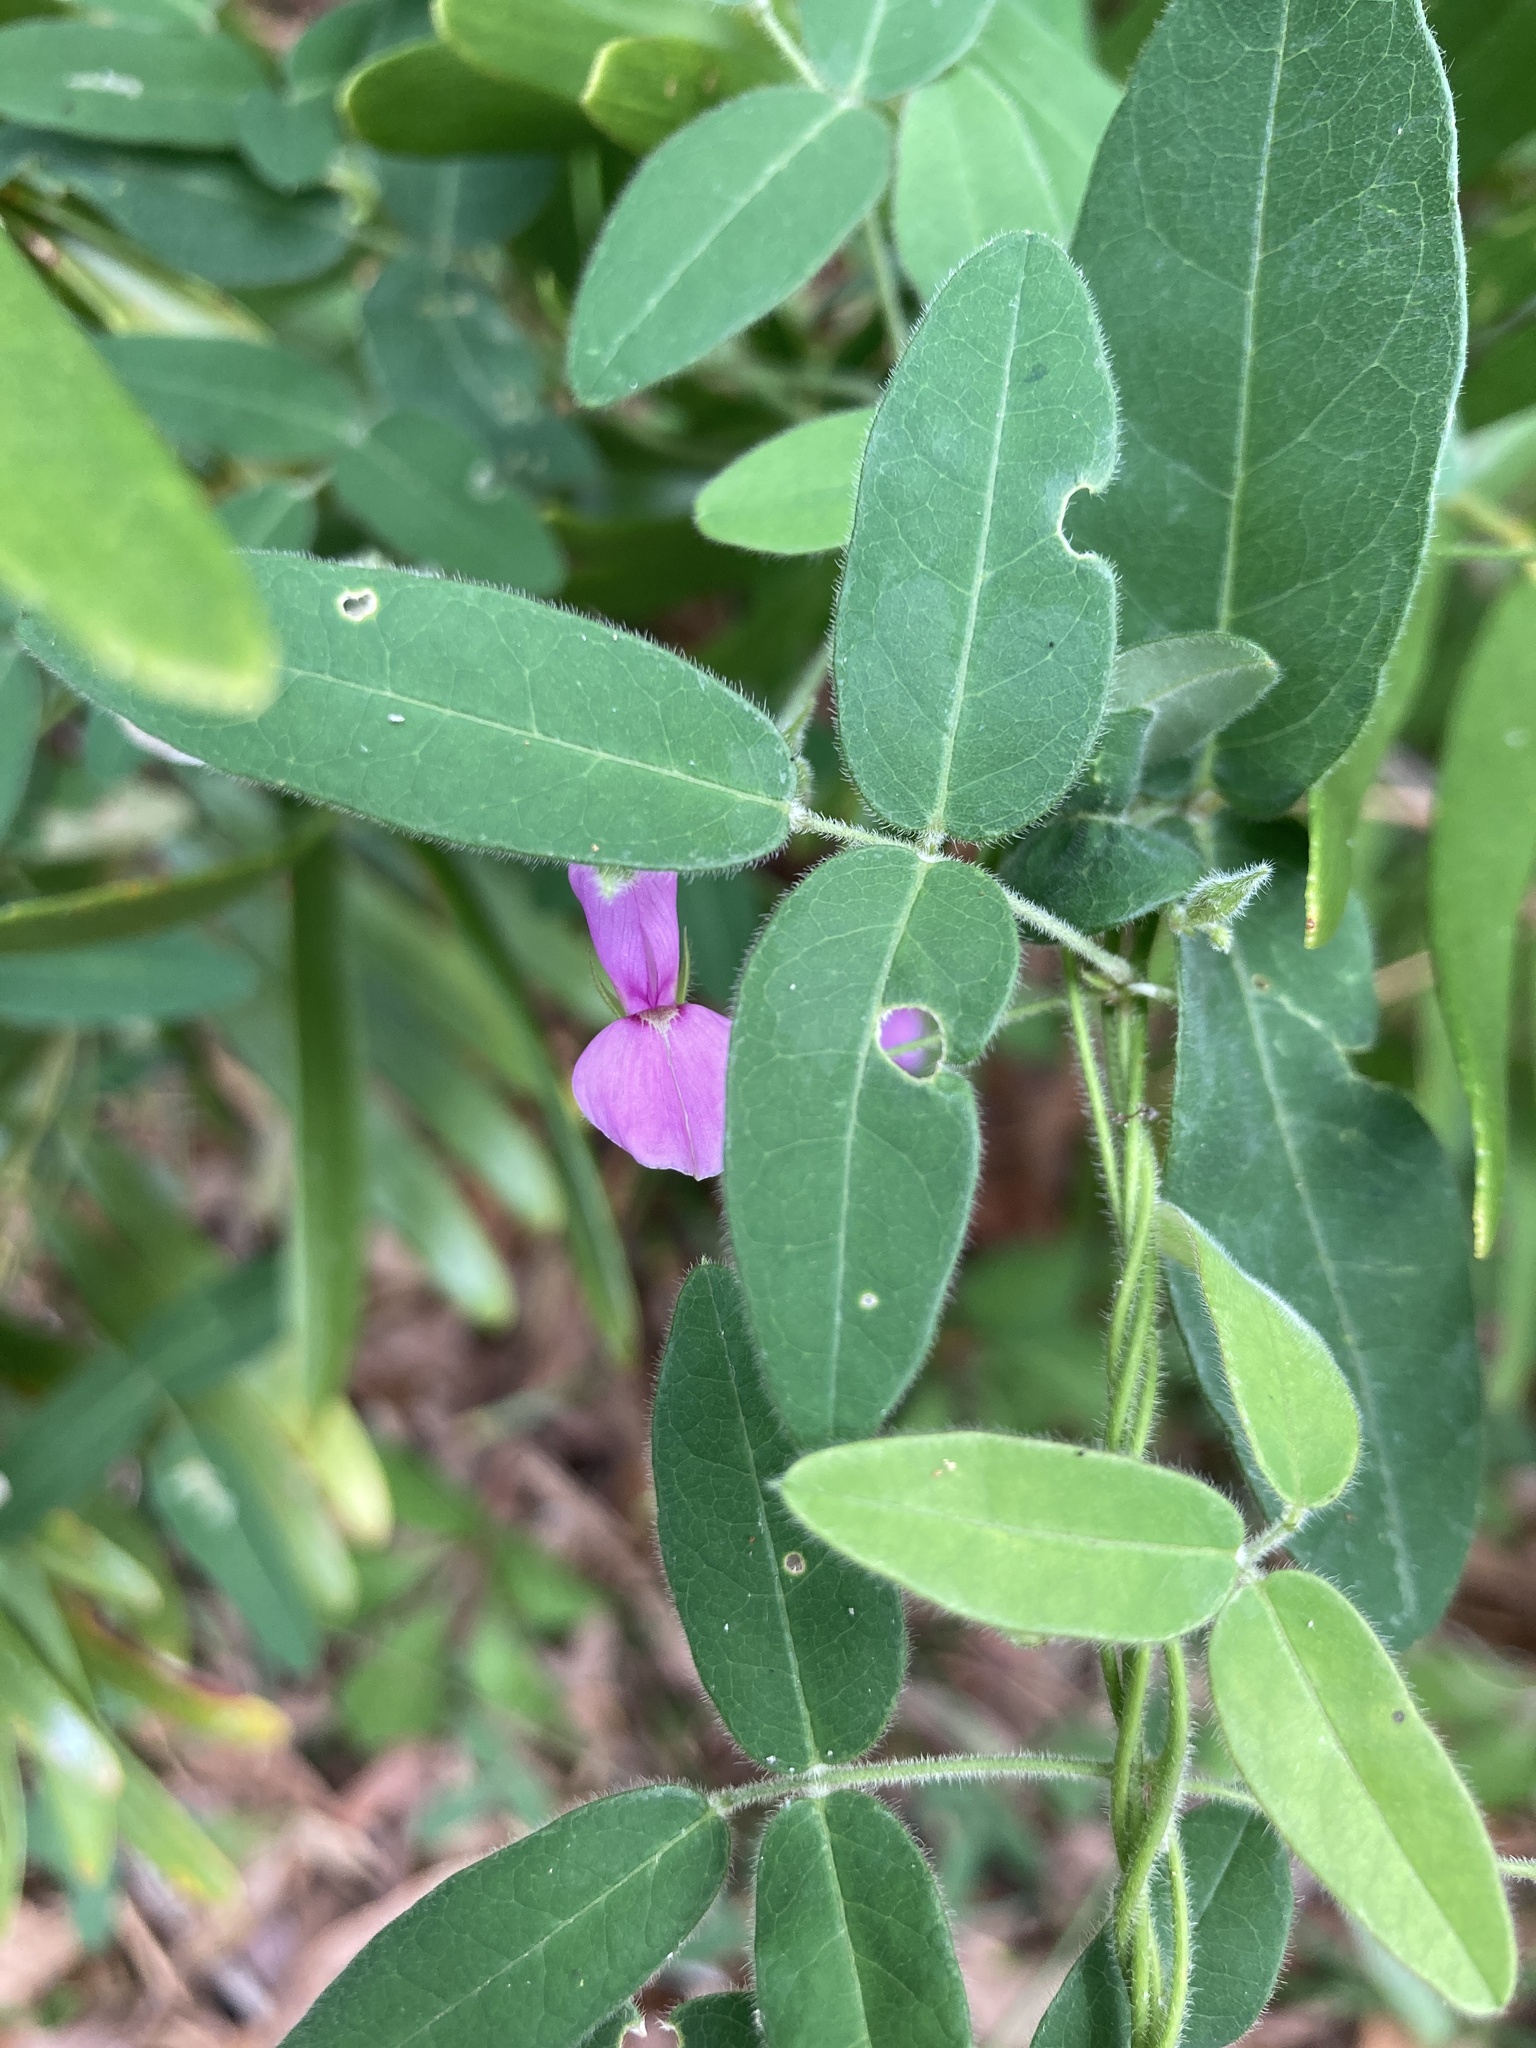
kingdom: Plantae
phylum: Tracheophyta
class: Magnoliopsida
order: Fabales
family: Fabaceae
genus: Galactia
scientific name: Galactia regularis
